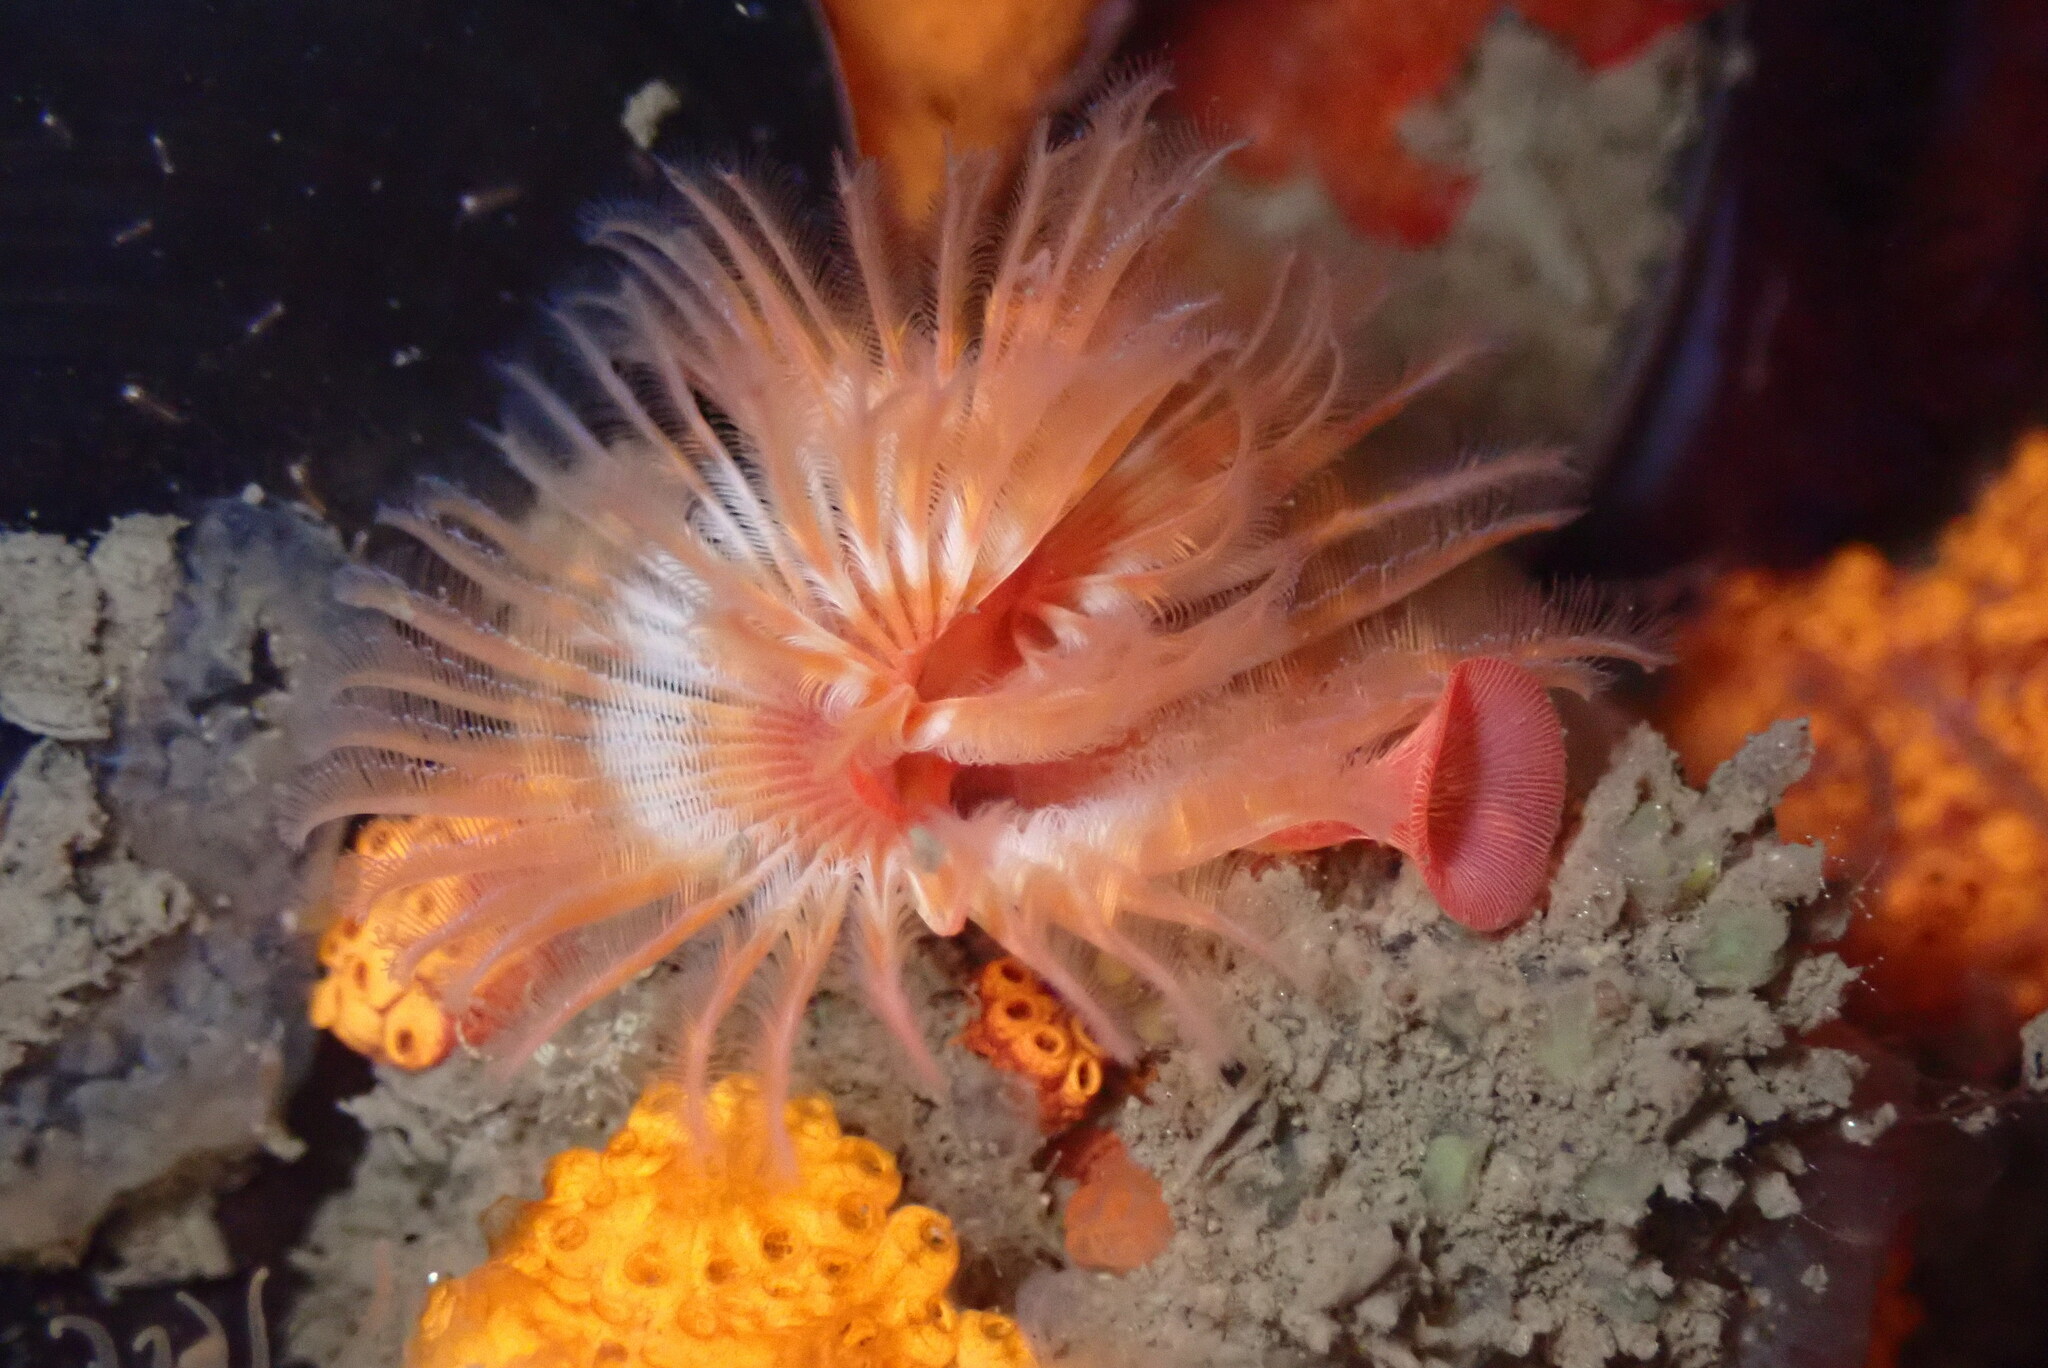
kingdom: Animalia
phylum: Annelida
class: Polychaeta
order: Sabellida
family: Serpulidae
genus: Serpula
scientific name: Serpula columbiana
